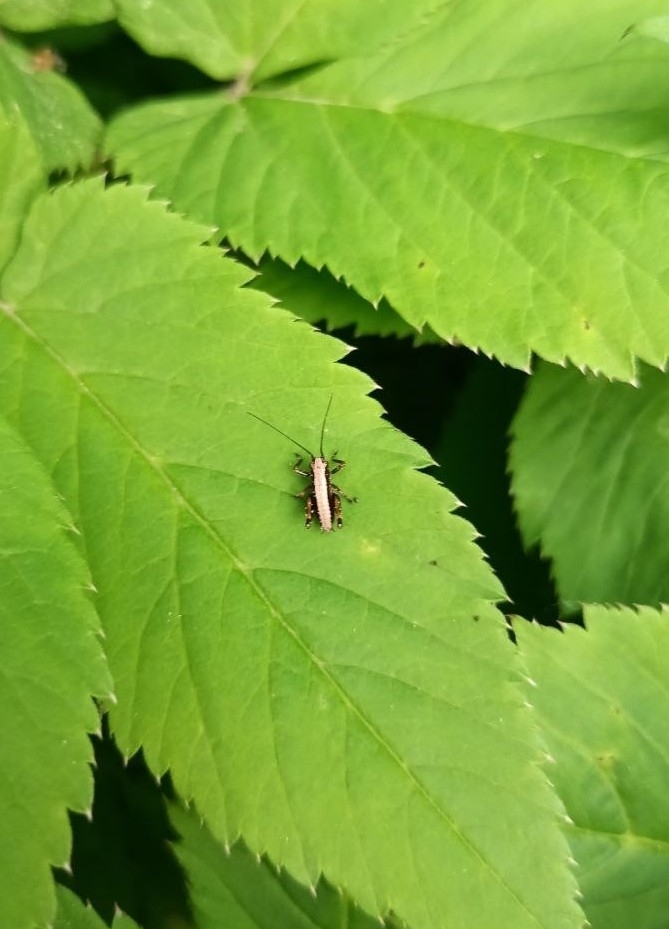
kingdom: Animalia
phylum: Arthropoda
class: Insecta
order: Orthoptera
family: Tettigoniidae
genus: Pholidoptera
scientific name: Pholidoptera griseoaptera
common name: Dark bush-cricket
